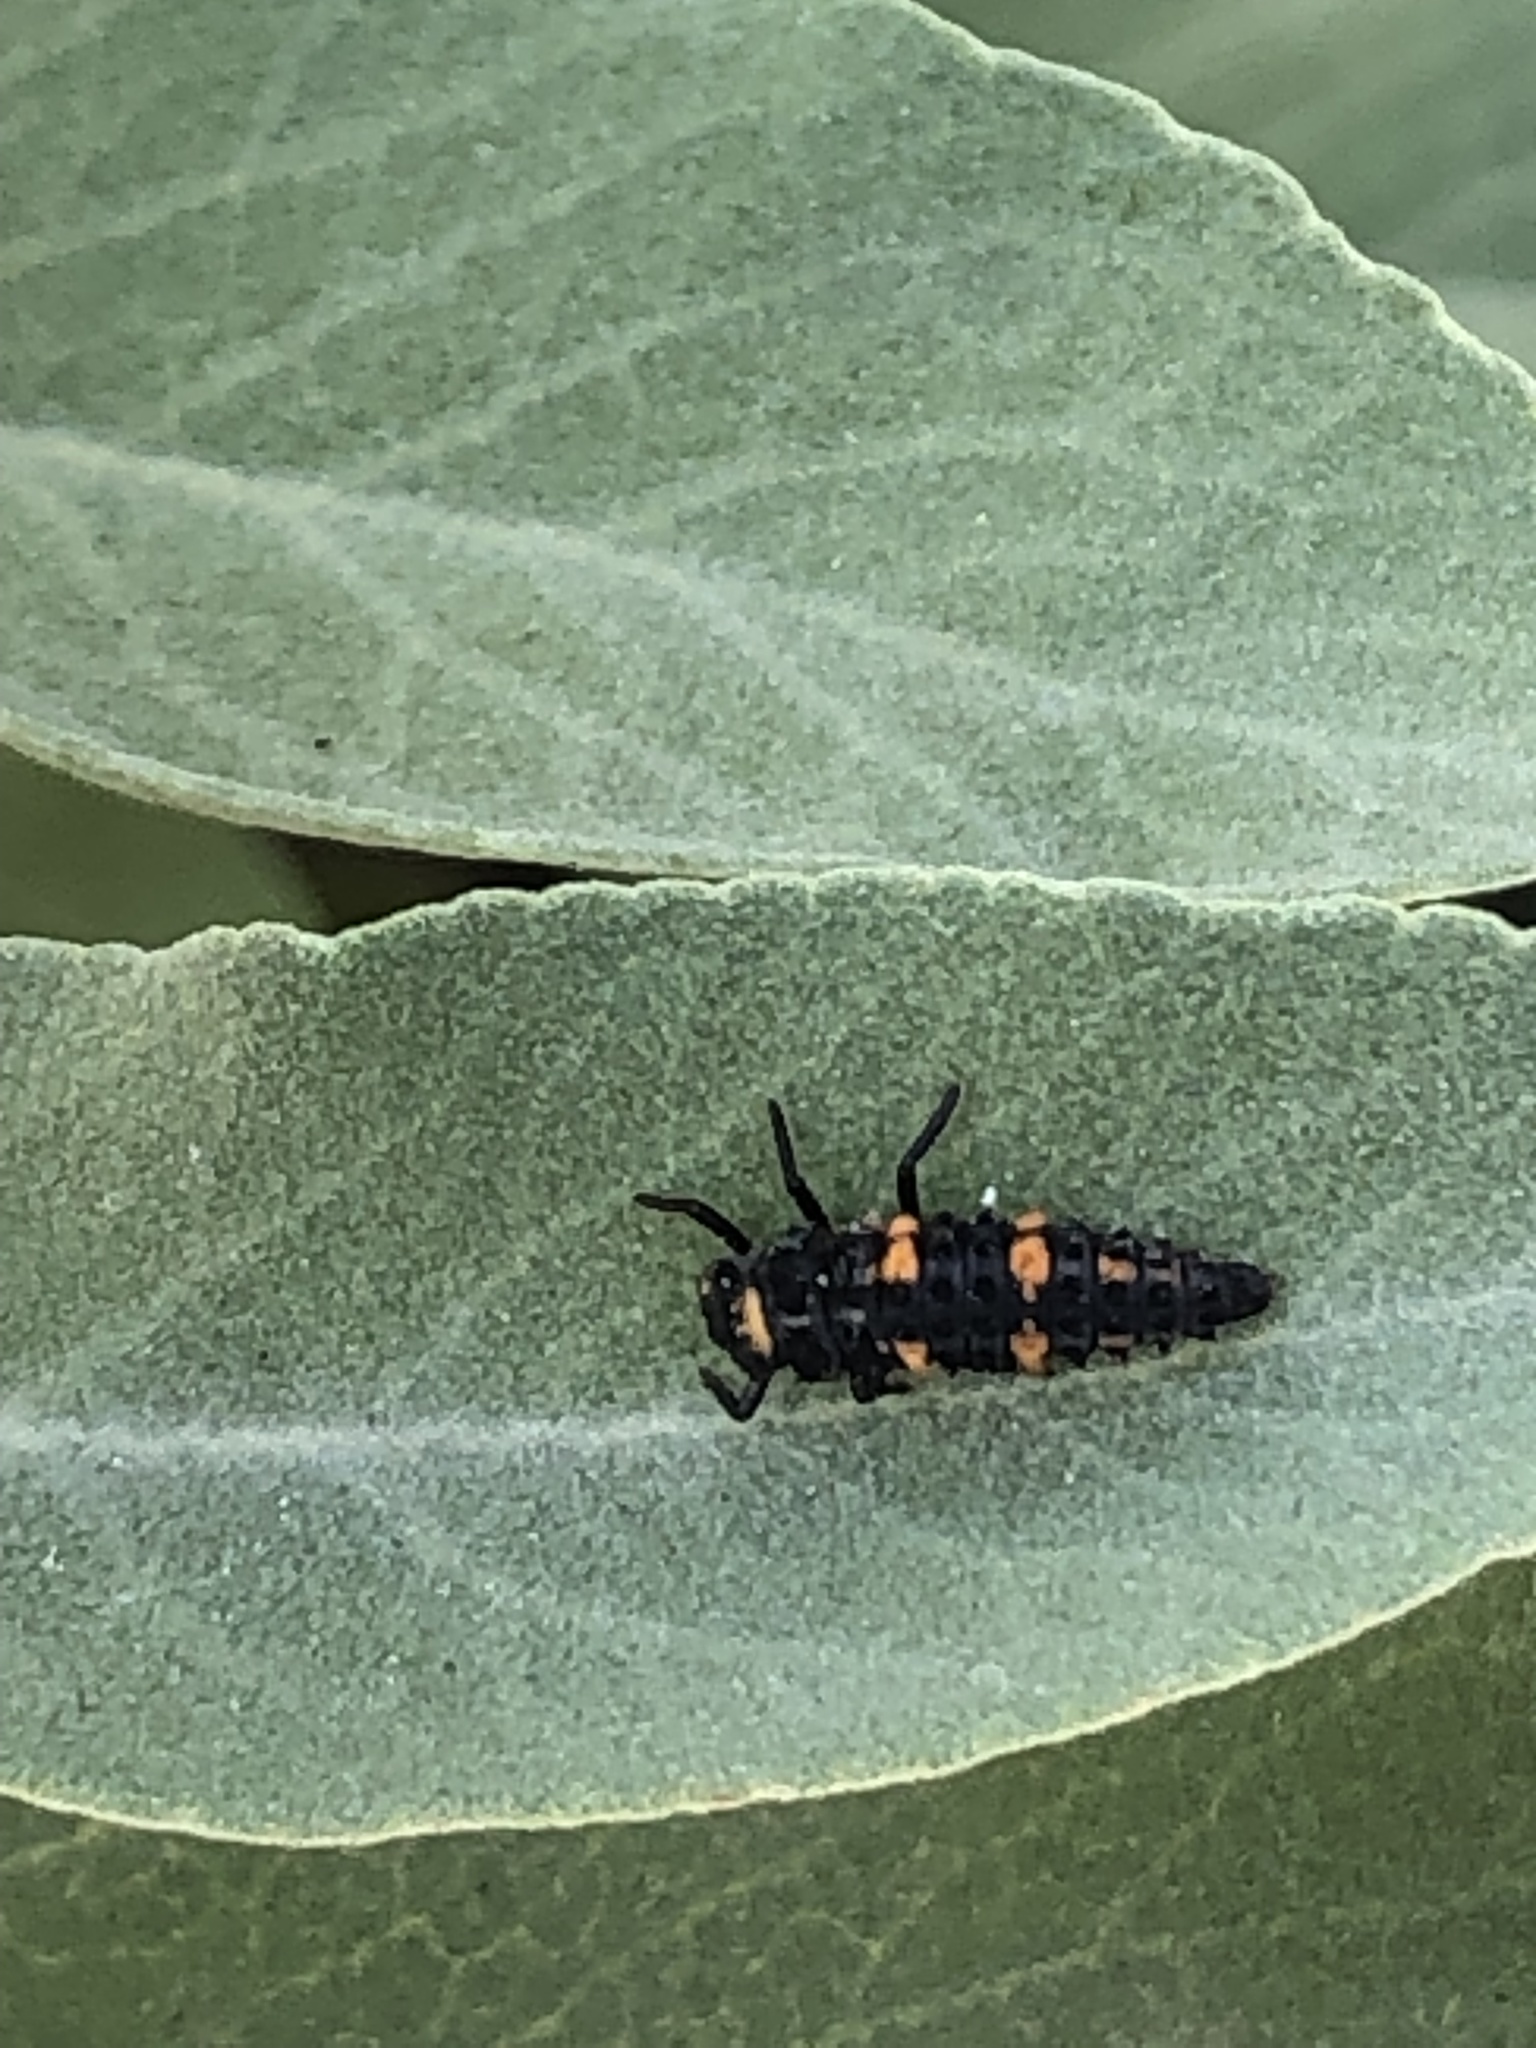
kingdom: Animalia
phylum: Arthropoda
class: Insecta
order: Coleoptera
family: Coccinellidae
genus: Hippodamia
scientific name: Hippodamia convergens
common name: Convergent lady beetle
